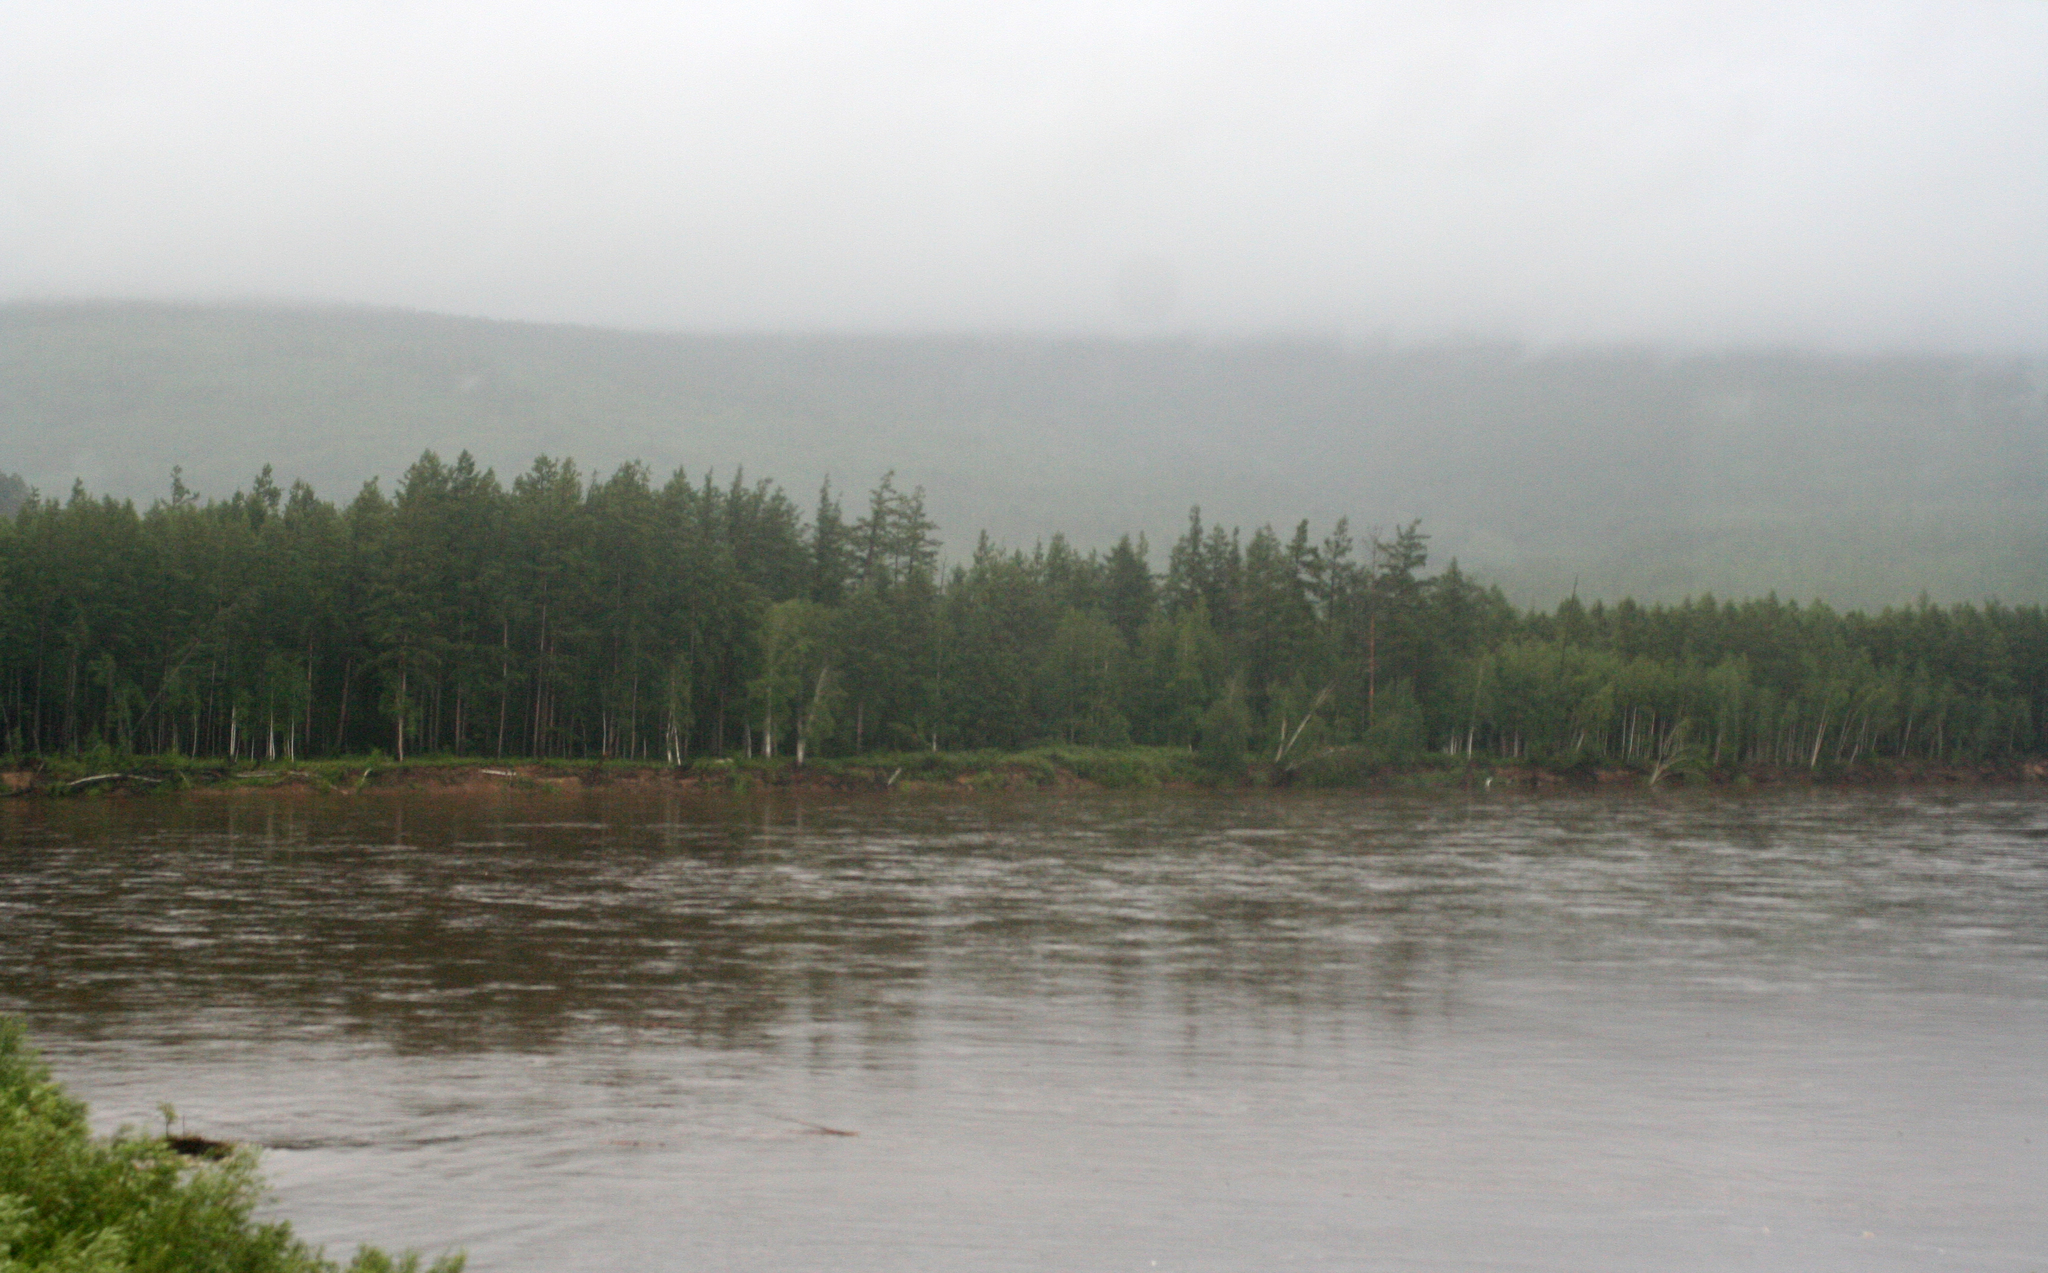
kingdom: Plantae
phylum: Tracheophyta
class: Pinopsida
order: Pinales
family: Pinaceae
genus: Larix
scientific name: Larix gmelinii
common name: Dahurian larch
